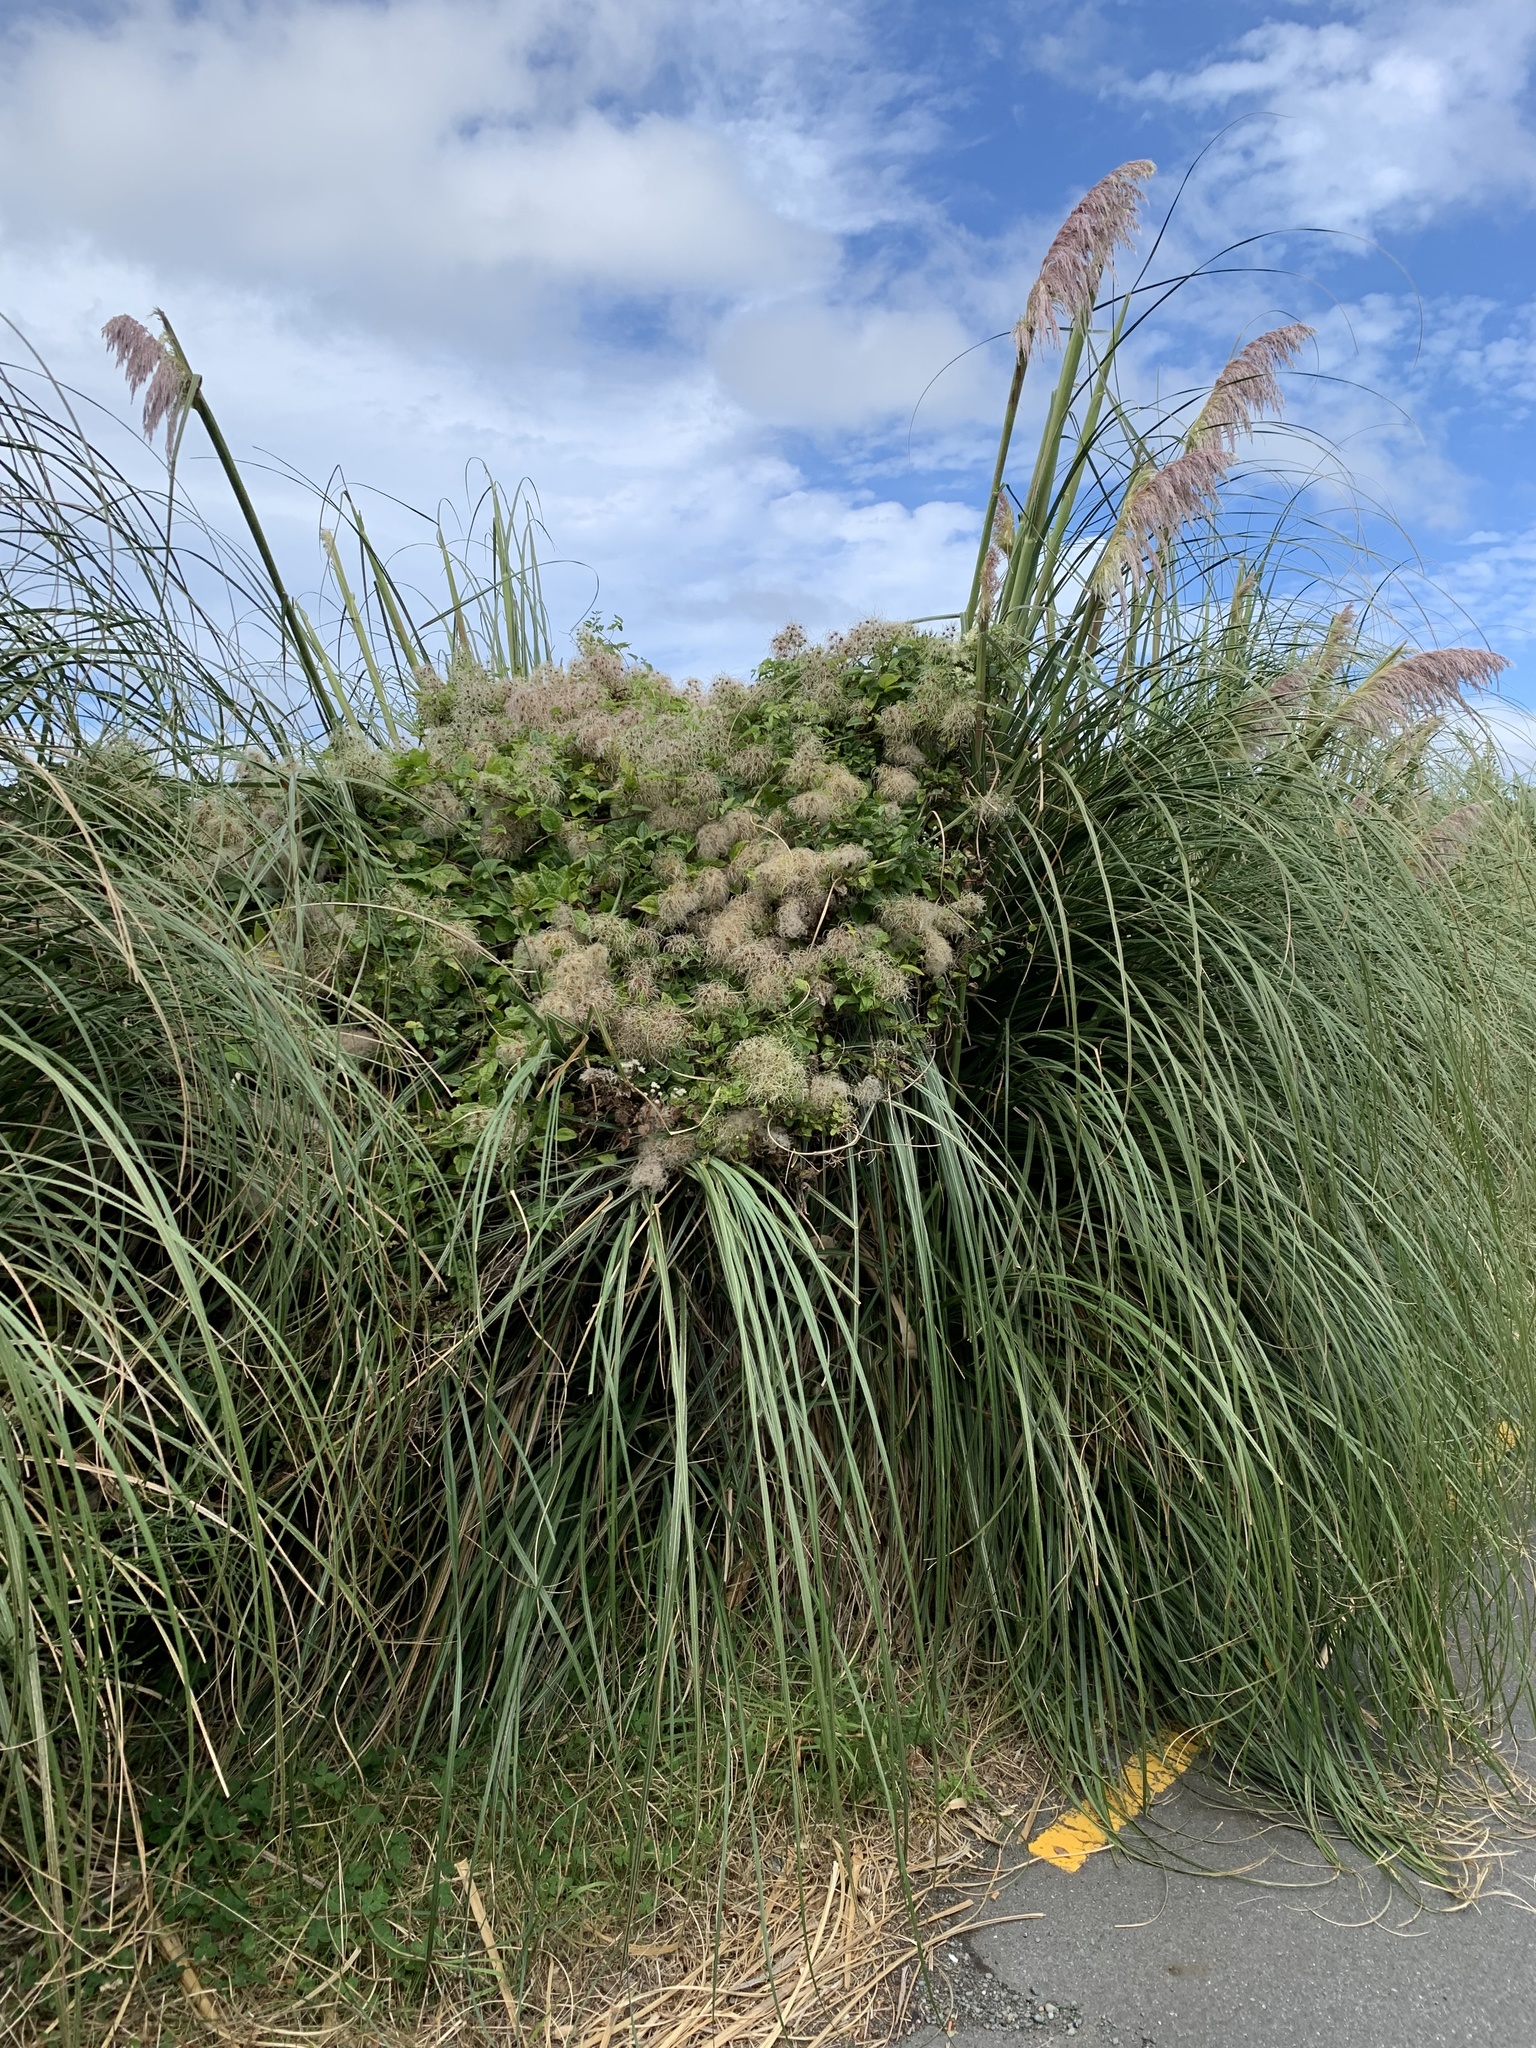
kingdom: Plantae
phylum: Tracheophyta
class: Magnoliopsida
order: Ranunculales
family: Ranunculaceae
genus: Clematis
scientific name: Clematis vitalba
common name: Evergreen clematis
